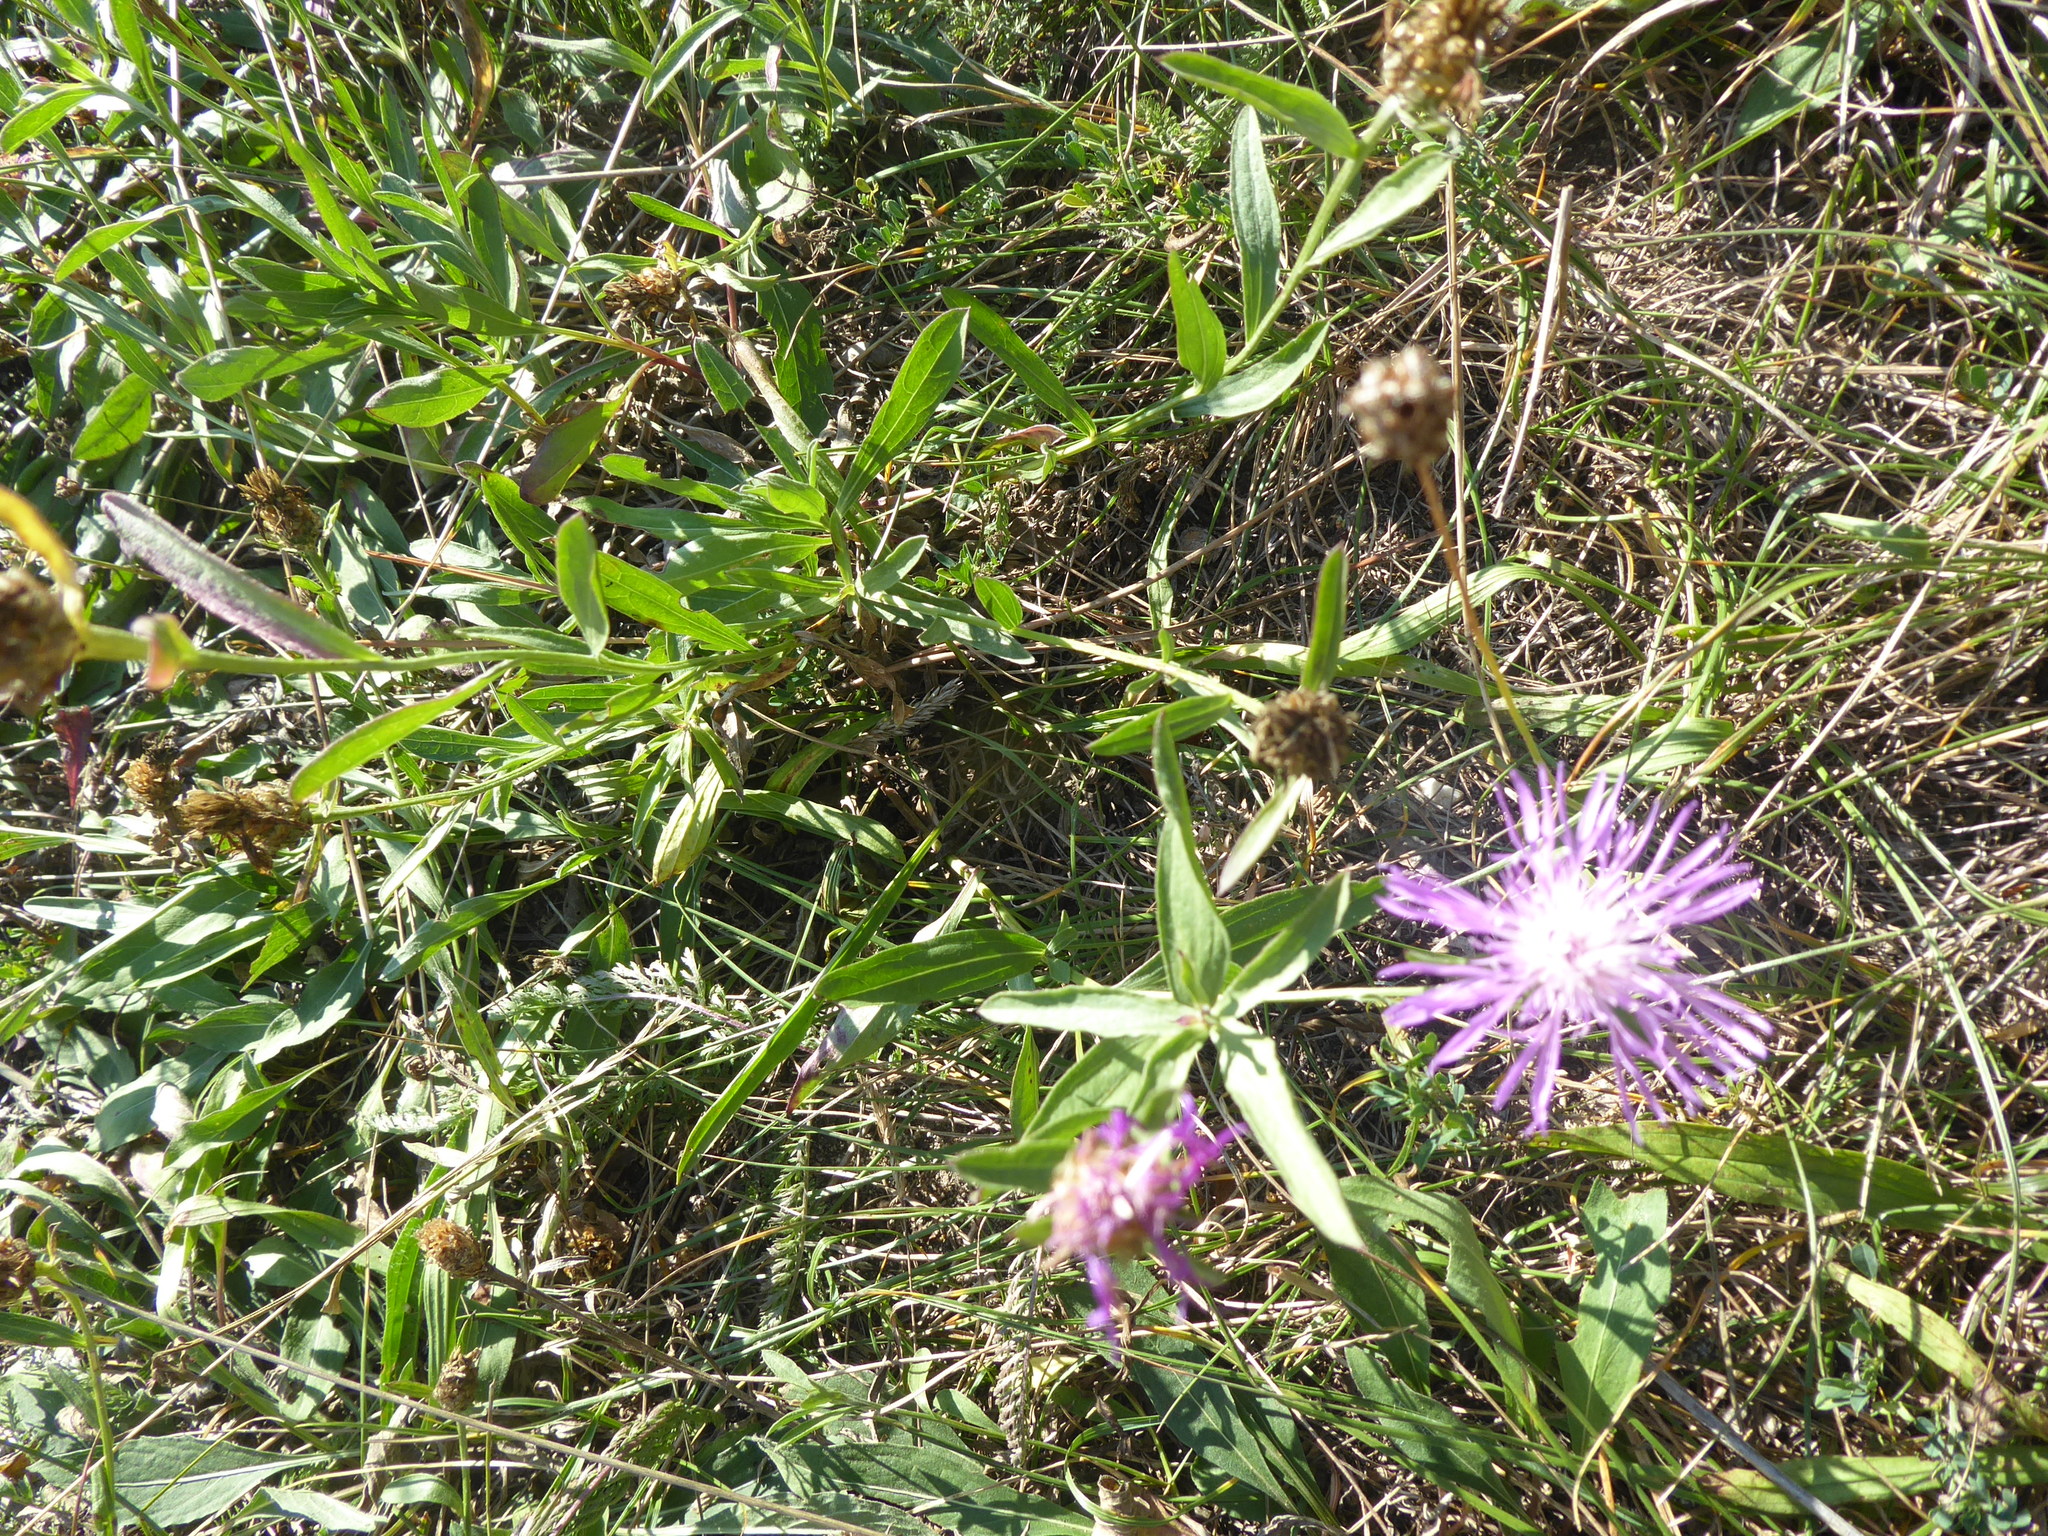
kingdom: Plantae
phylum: Tracheophyta
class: Magnoliopsida
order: Asterales
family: Asteraceae
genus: Centaurea
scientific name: Centaurea jacea
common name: Brown knapweed
